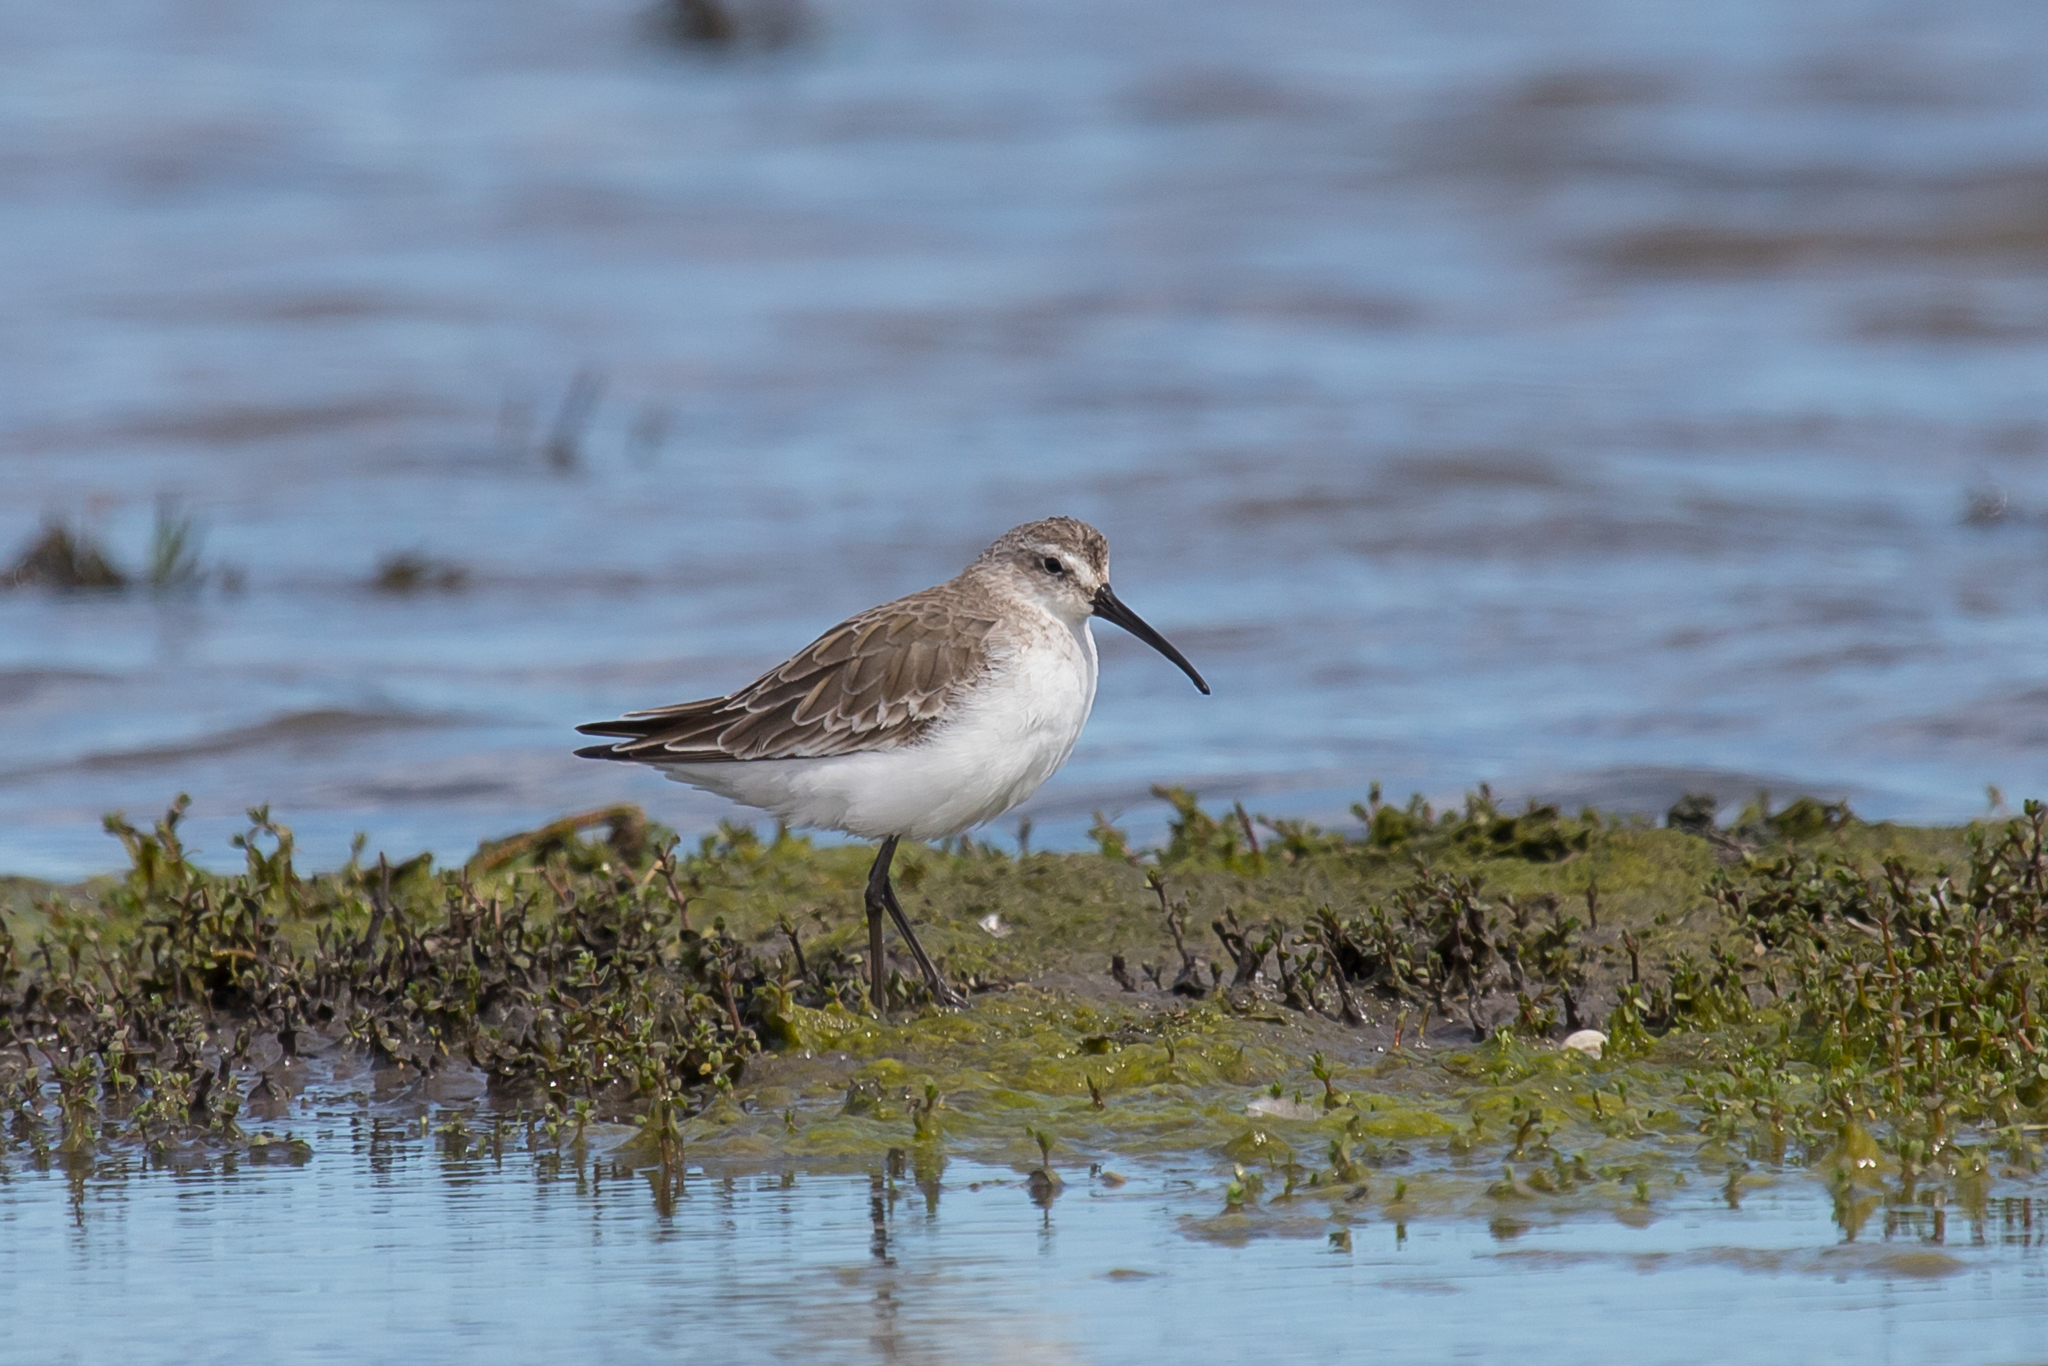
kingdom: Animalia
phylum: Chordata
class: Aves
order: Charadriiformes
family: Scolopacidae
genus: Calidris
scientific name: Calidris ferruginea
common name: Curlew sandpiper
